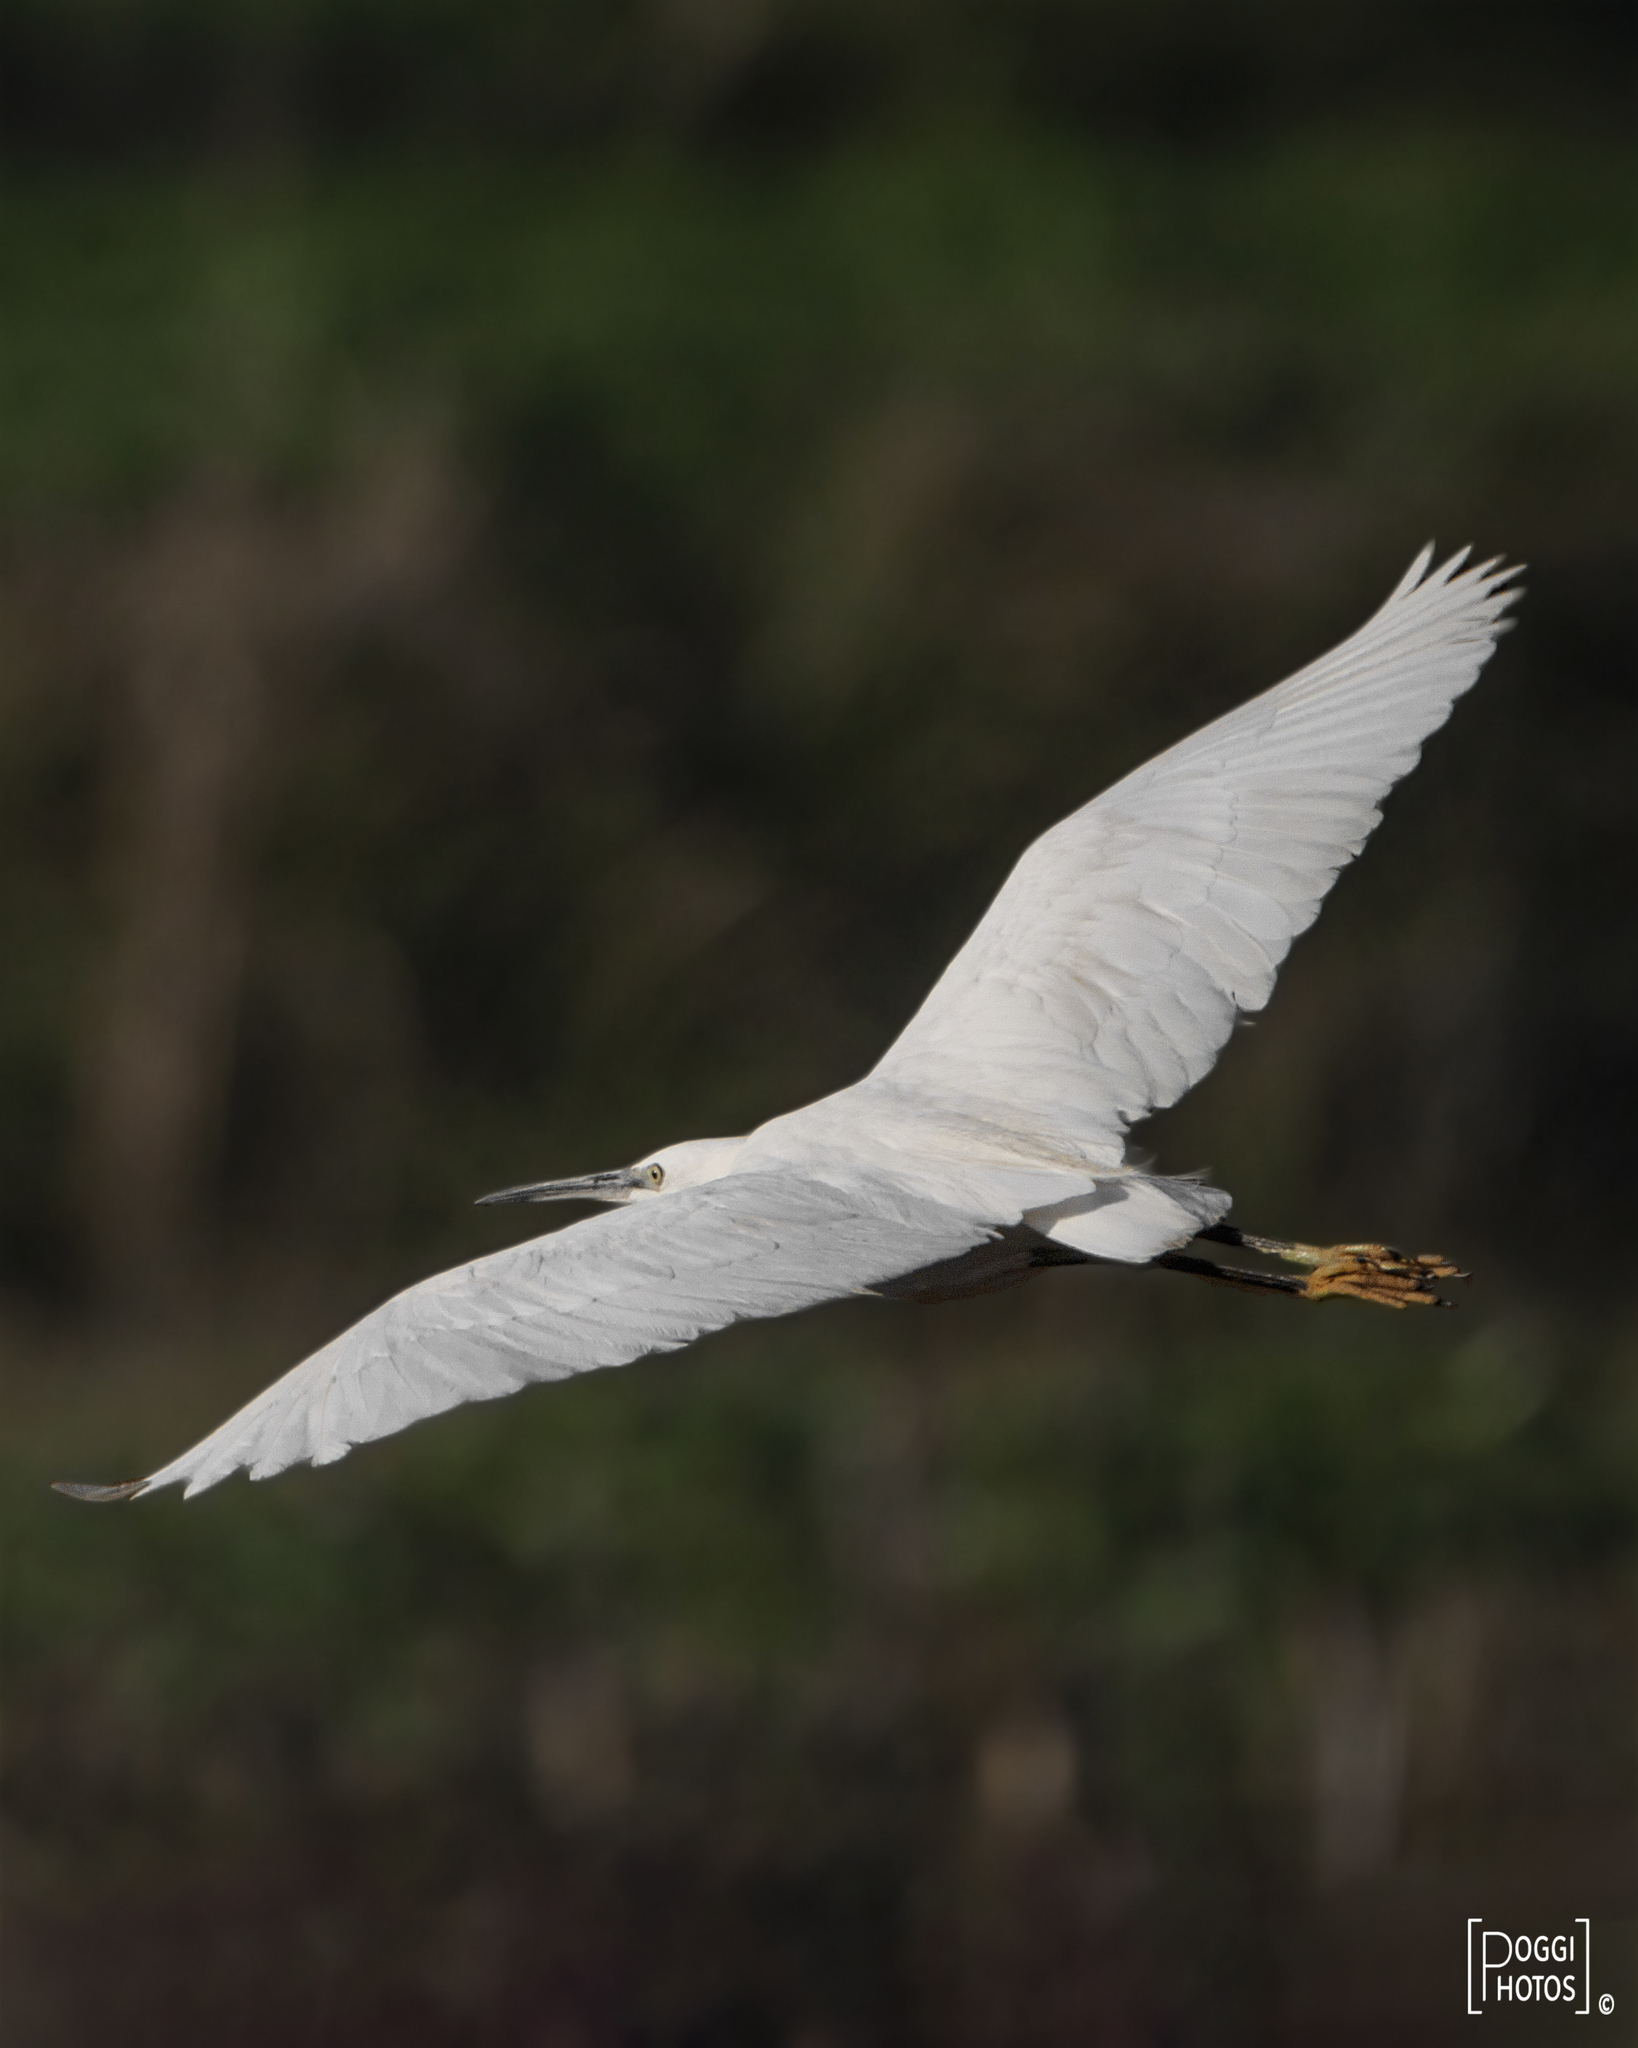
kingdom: Animalia
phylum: Chordata
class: Aves
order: Pelecaniformes
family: Ardeidae
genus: Egretta
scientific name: Egretta garzetta
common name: Little egret
